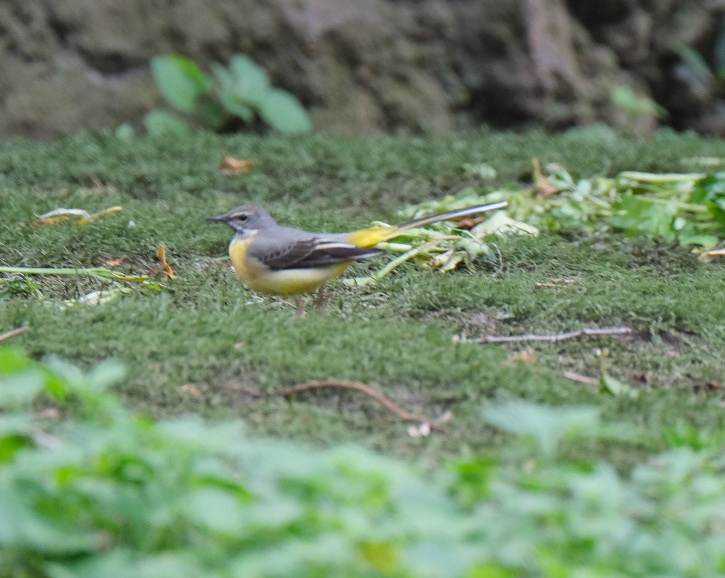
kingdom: Animalia
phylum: Chordata
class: Aves
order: Passeriformes
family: Motacillidae
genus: Motacilla
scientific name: Motacilla cinerea
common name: Grey wagtail
